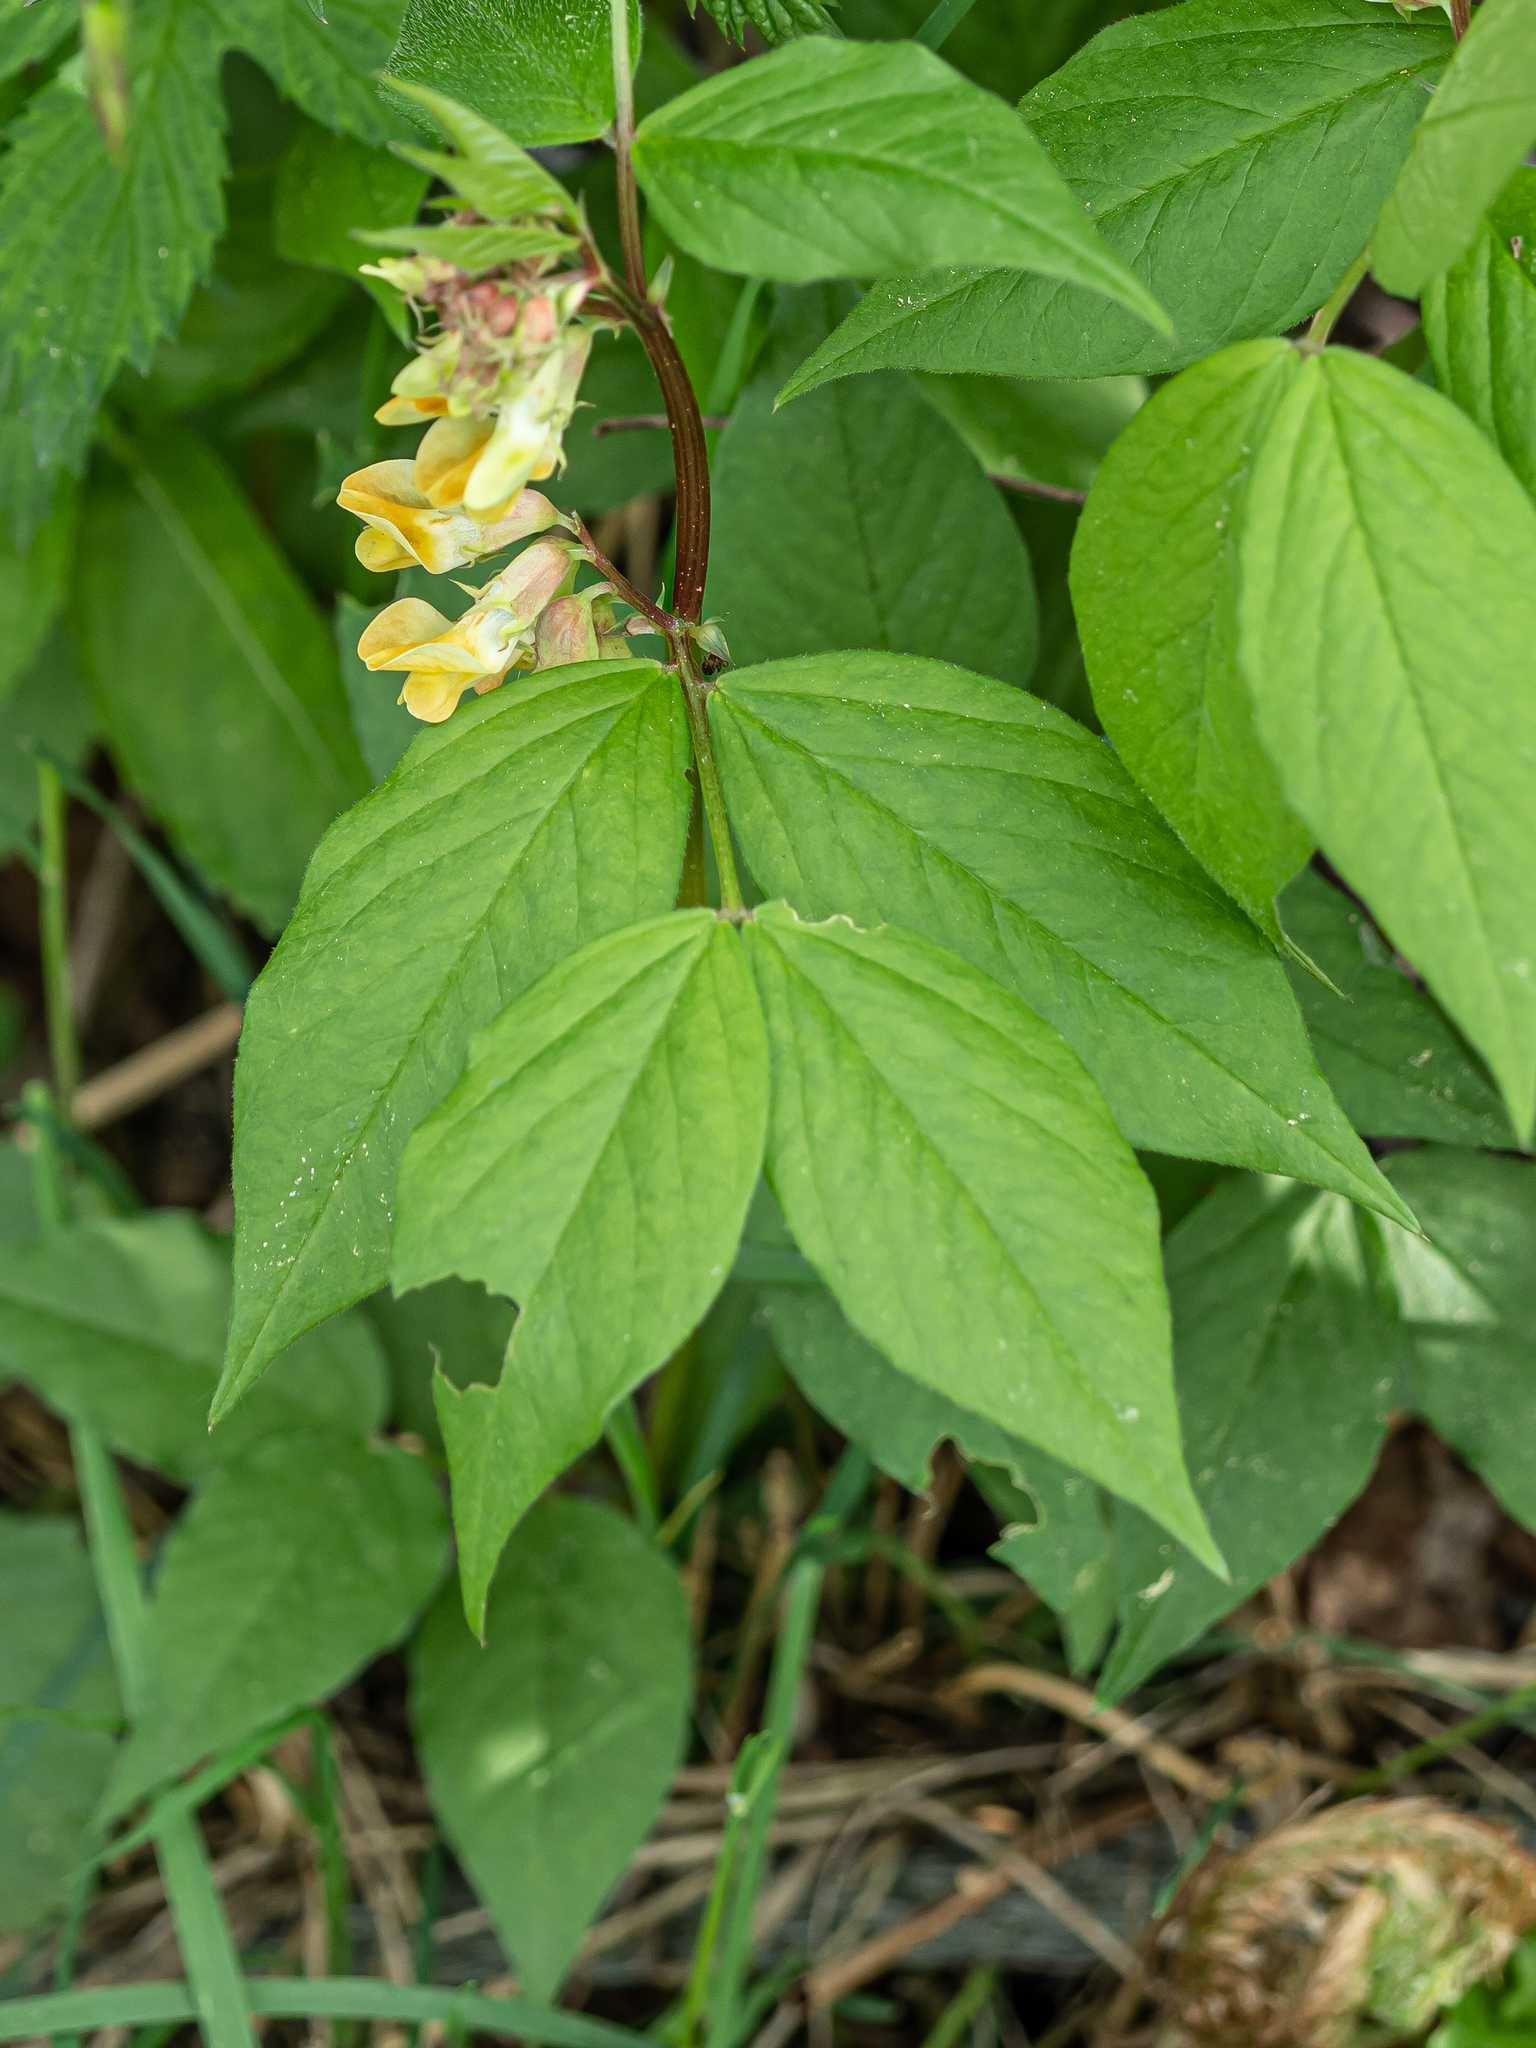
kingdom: Plantae
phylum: Tracheophyta
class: Magnoliopsida
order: Fabales
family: Fabaceae
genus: Vicia
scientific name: Vicia oroboides
